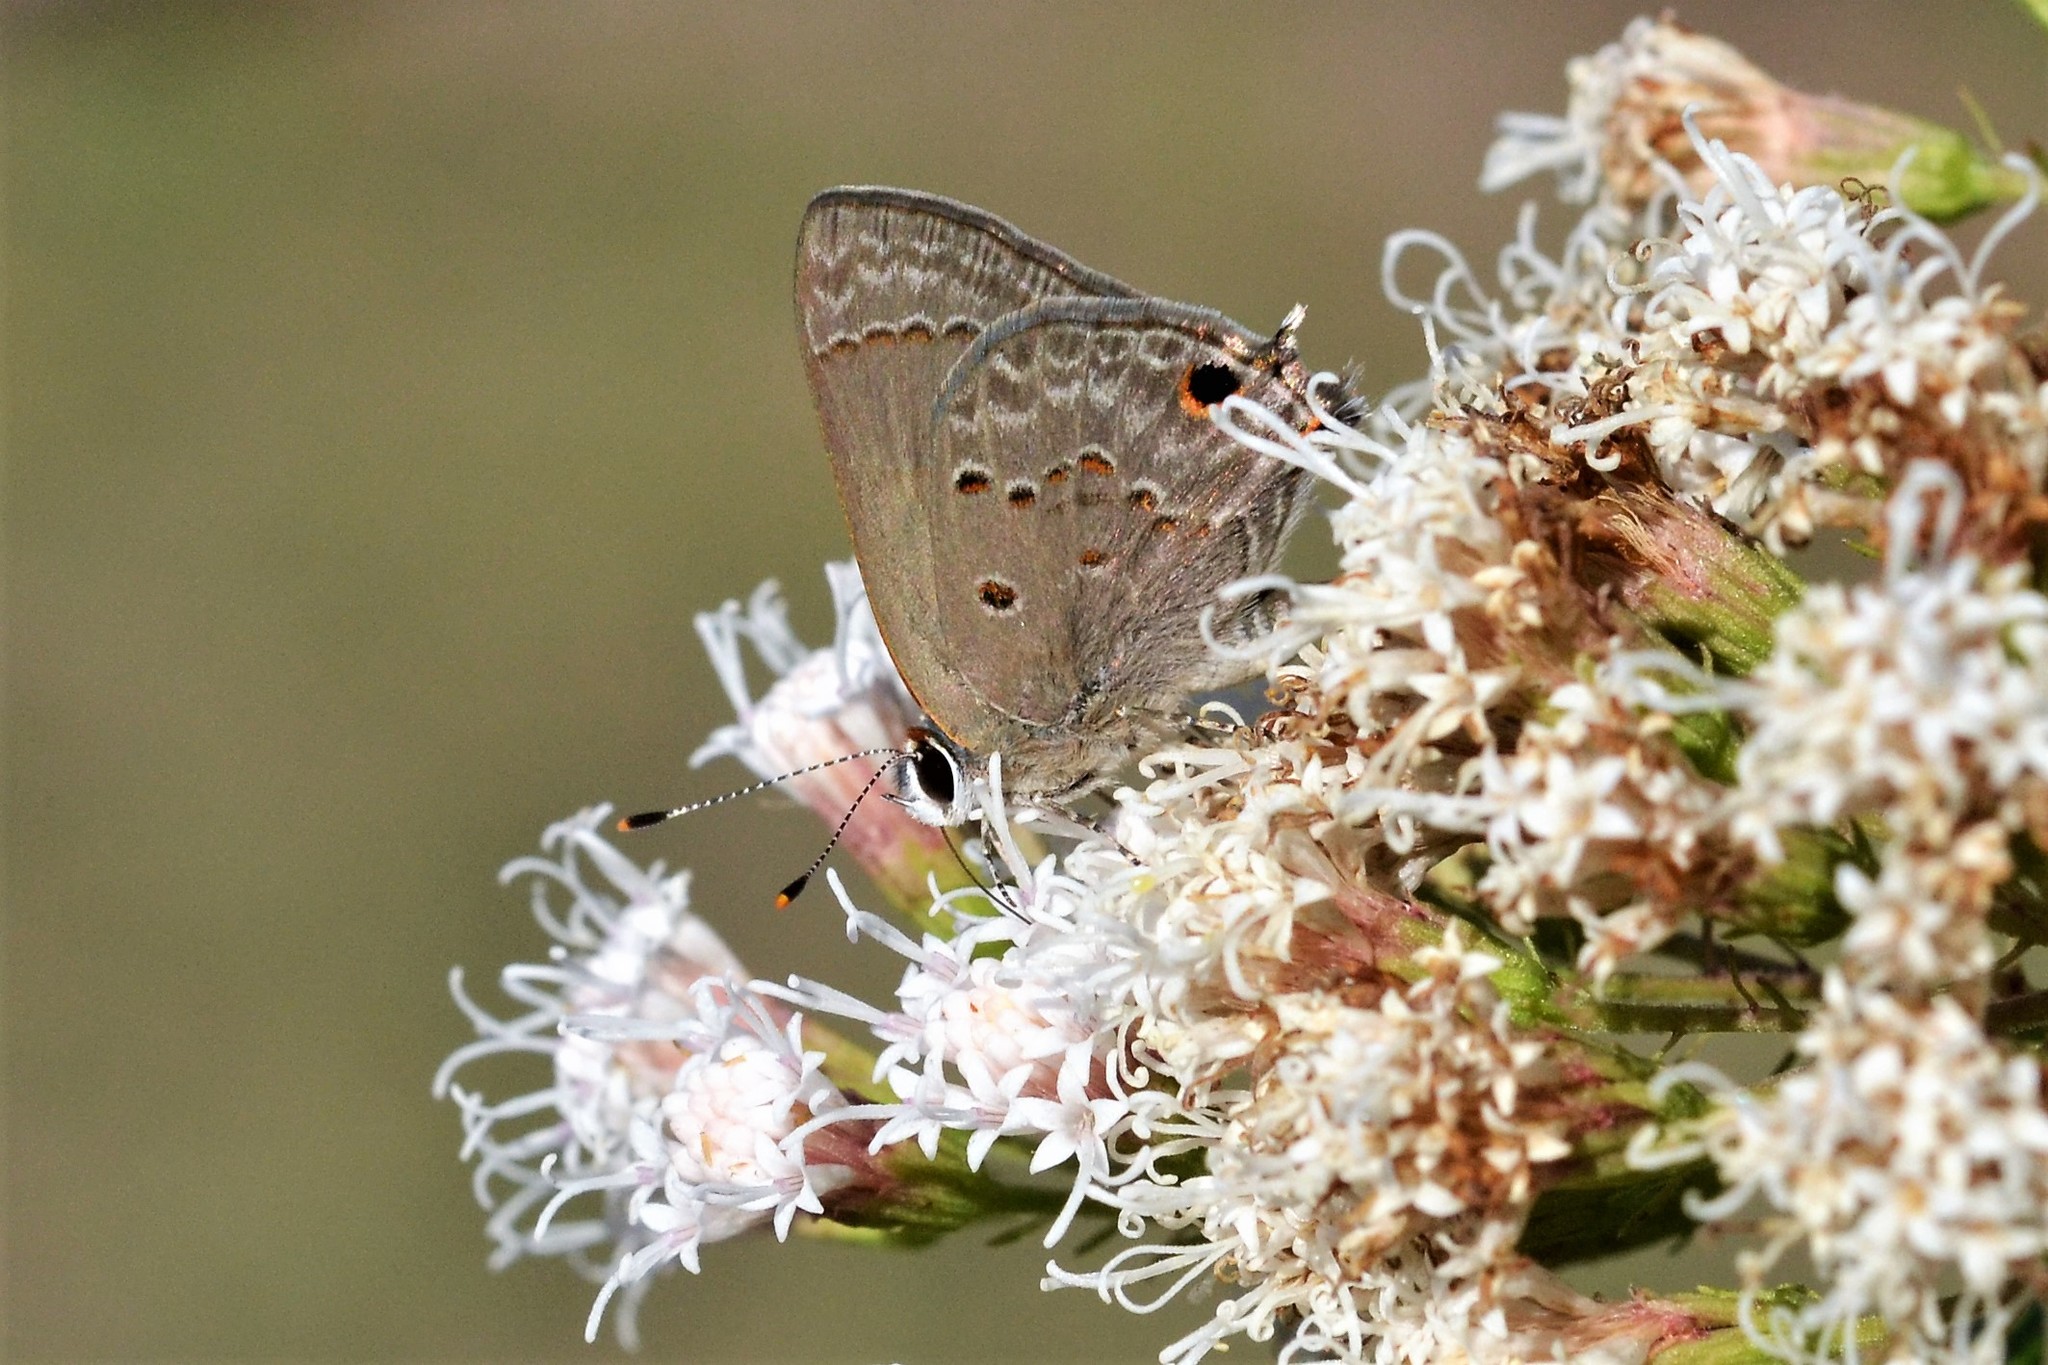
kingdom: Animalia
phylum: Arthropoda
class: Insecta
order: Lepidoptera
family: Lycaenidae
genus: Callicista
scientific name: Callicista columella
